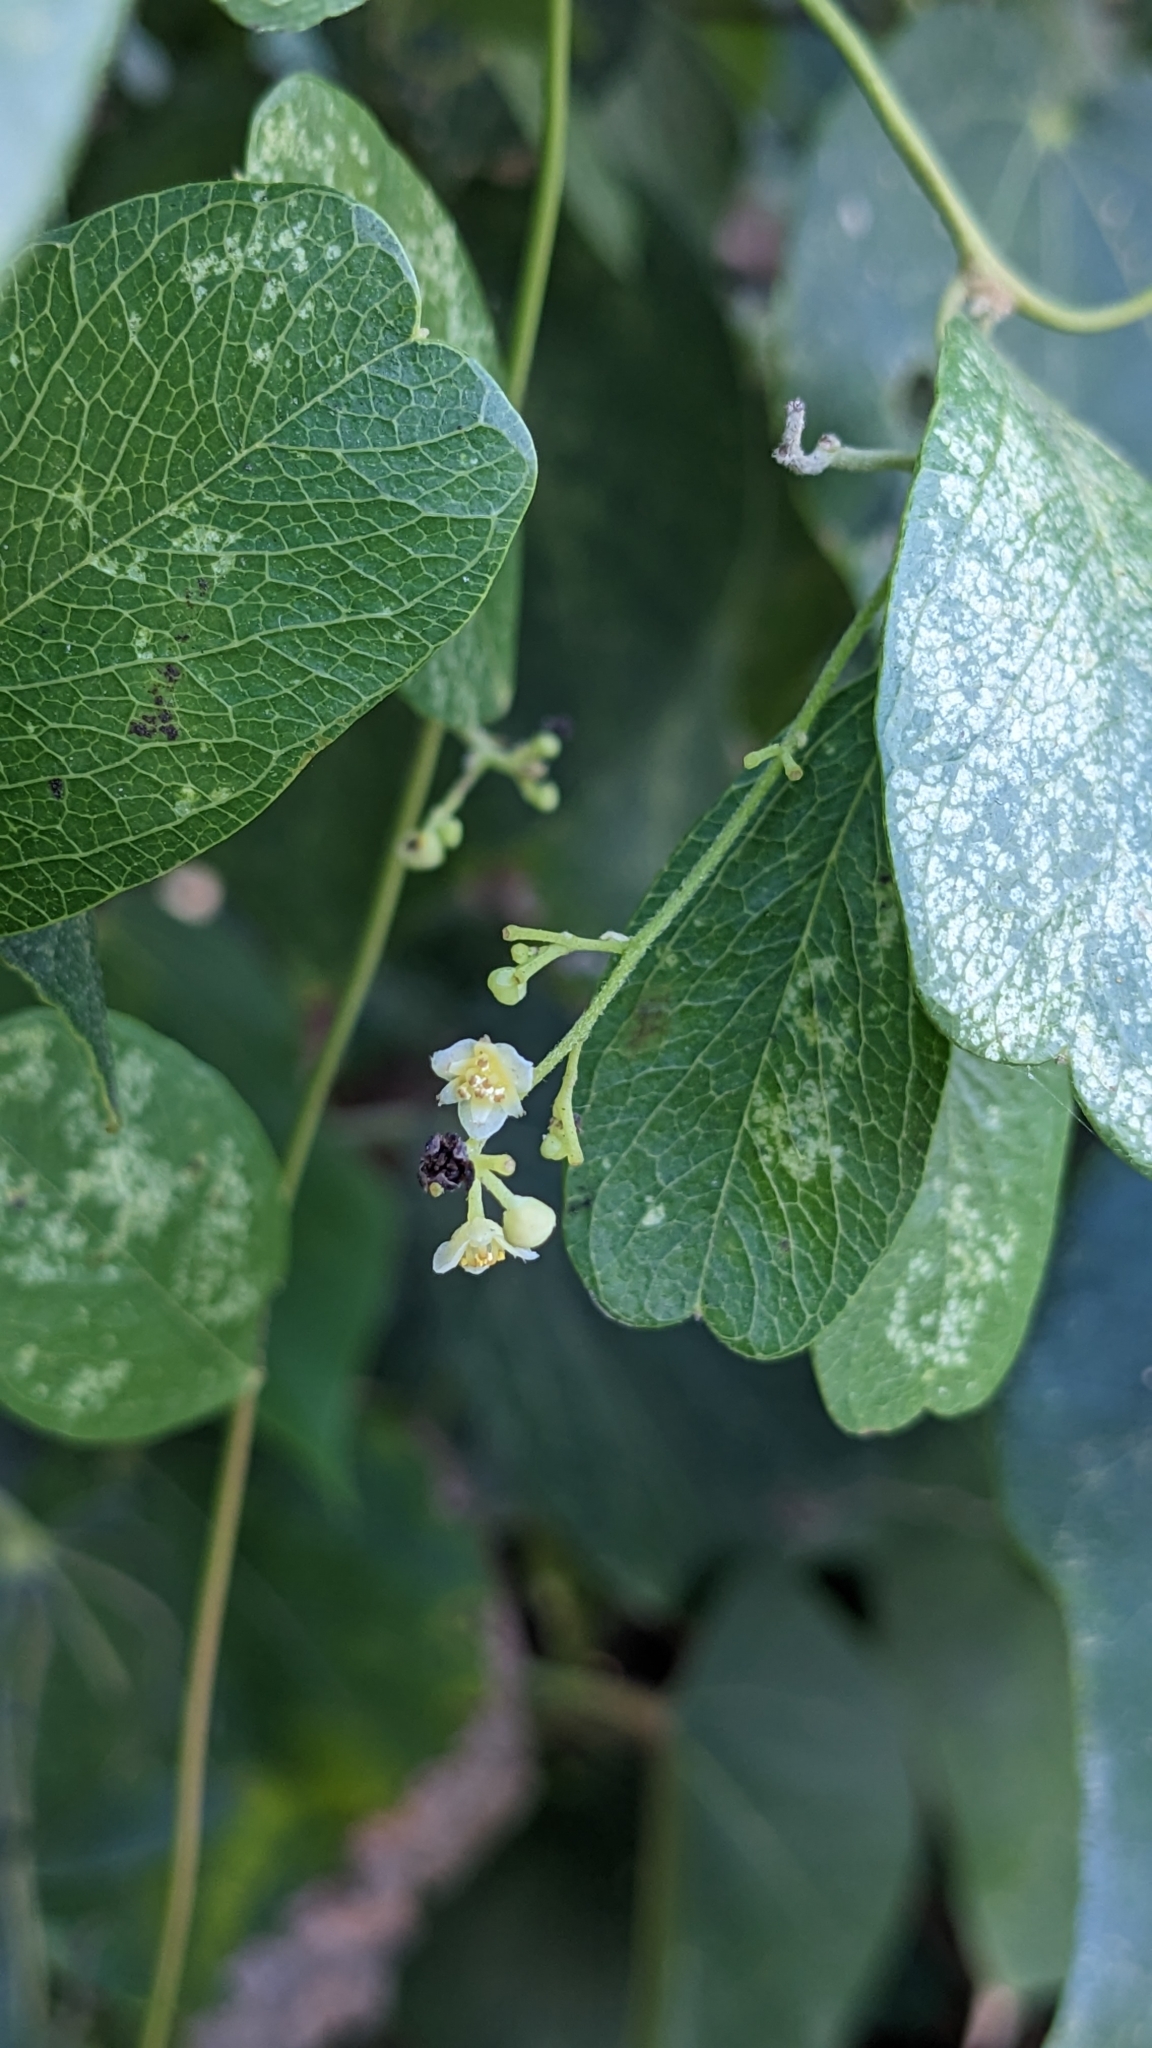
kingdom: Plantae
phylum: Tracheophyta
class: Magnoliopsida
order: Ranunculales
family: Menispermaceae
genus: Cocculus
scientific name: Cocculus orbiculatus
